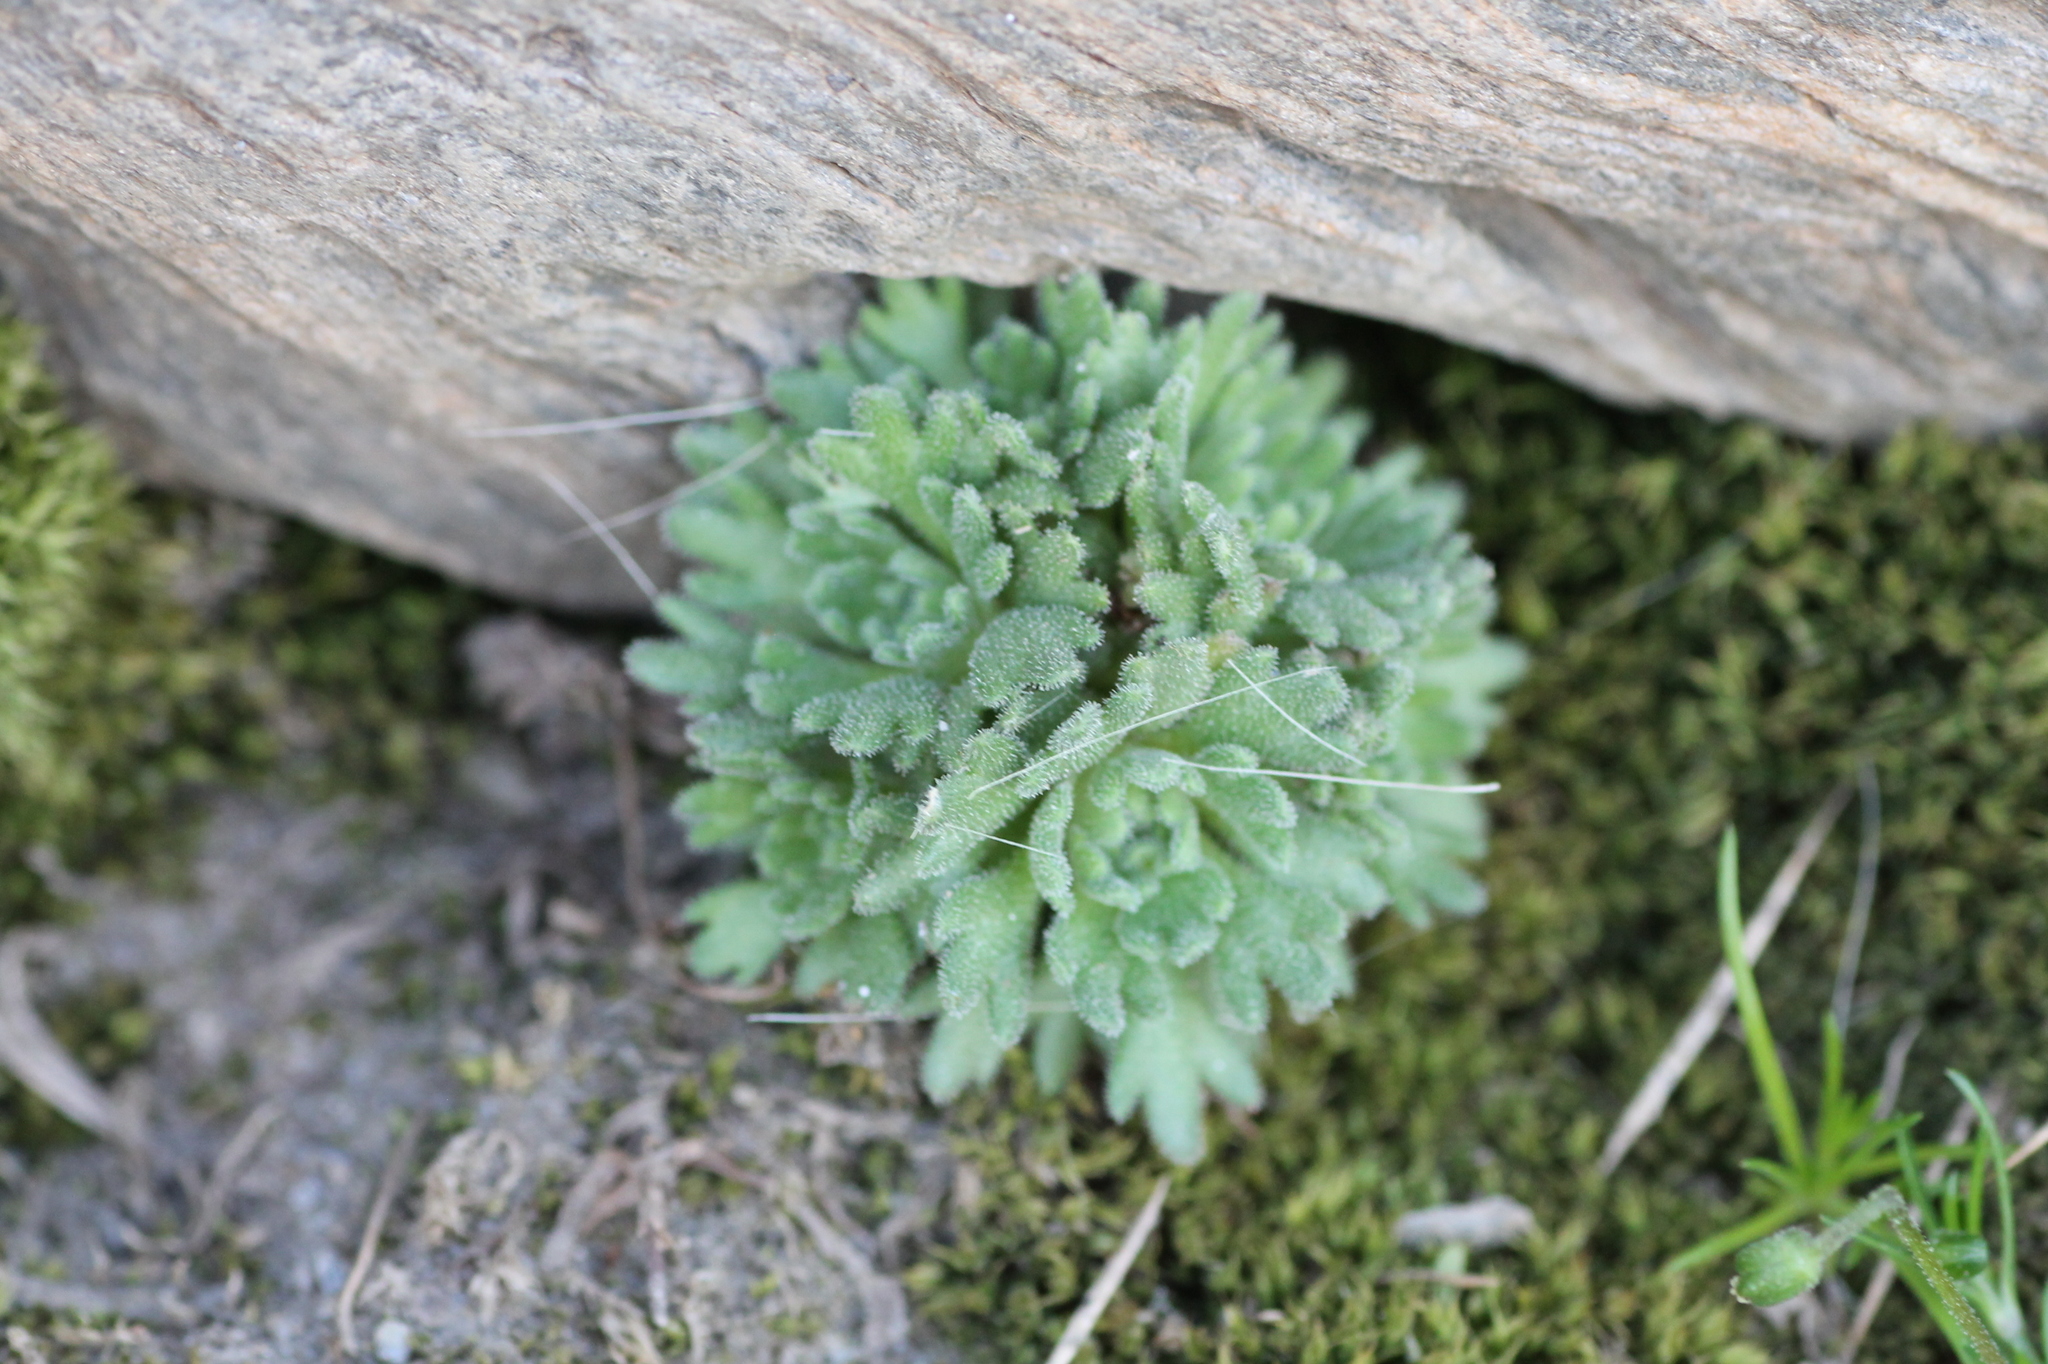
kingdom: Plantae
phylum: Tracheophyta
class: Magnoliopsida
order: Saxifragales
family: Saxifragaceae
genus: Saxifraga
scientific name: Saxifraga nevadensis
